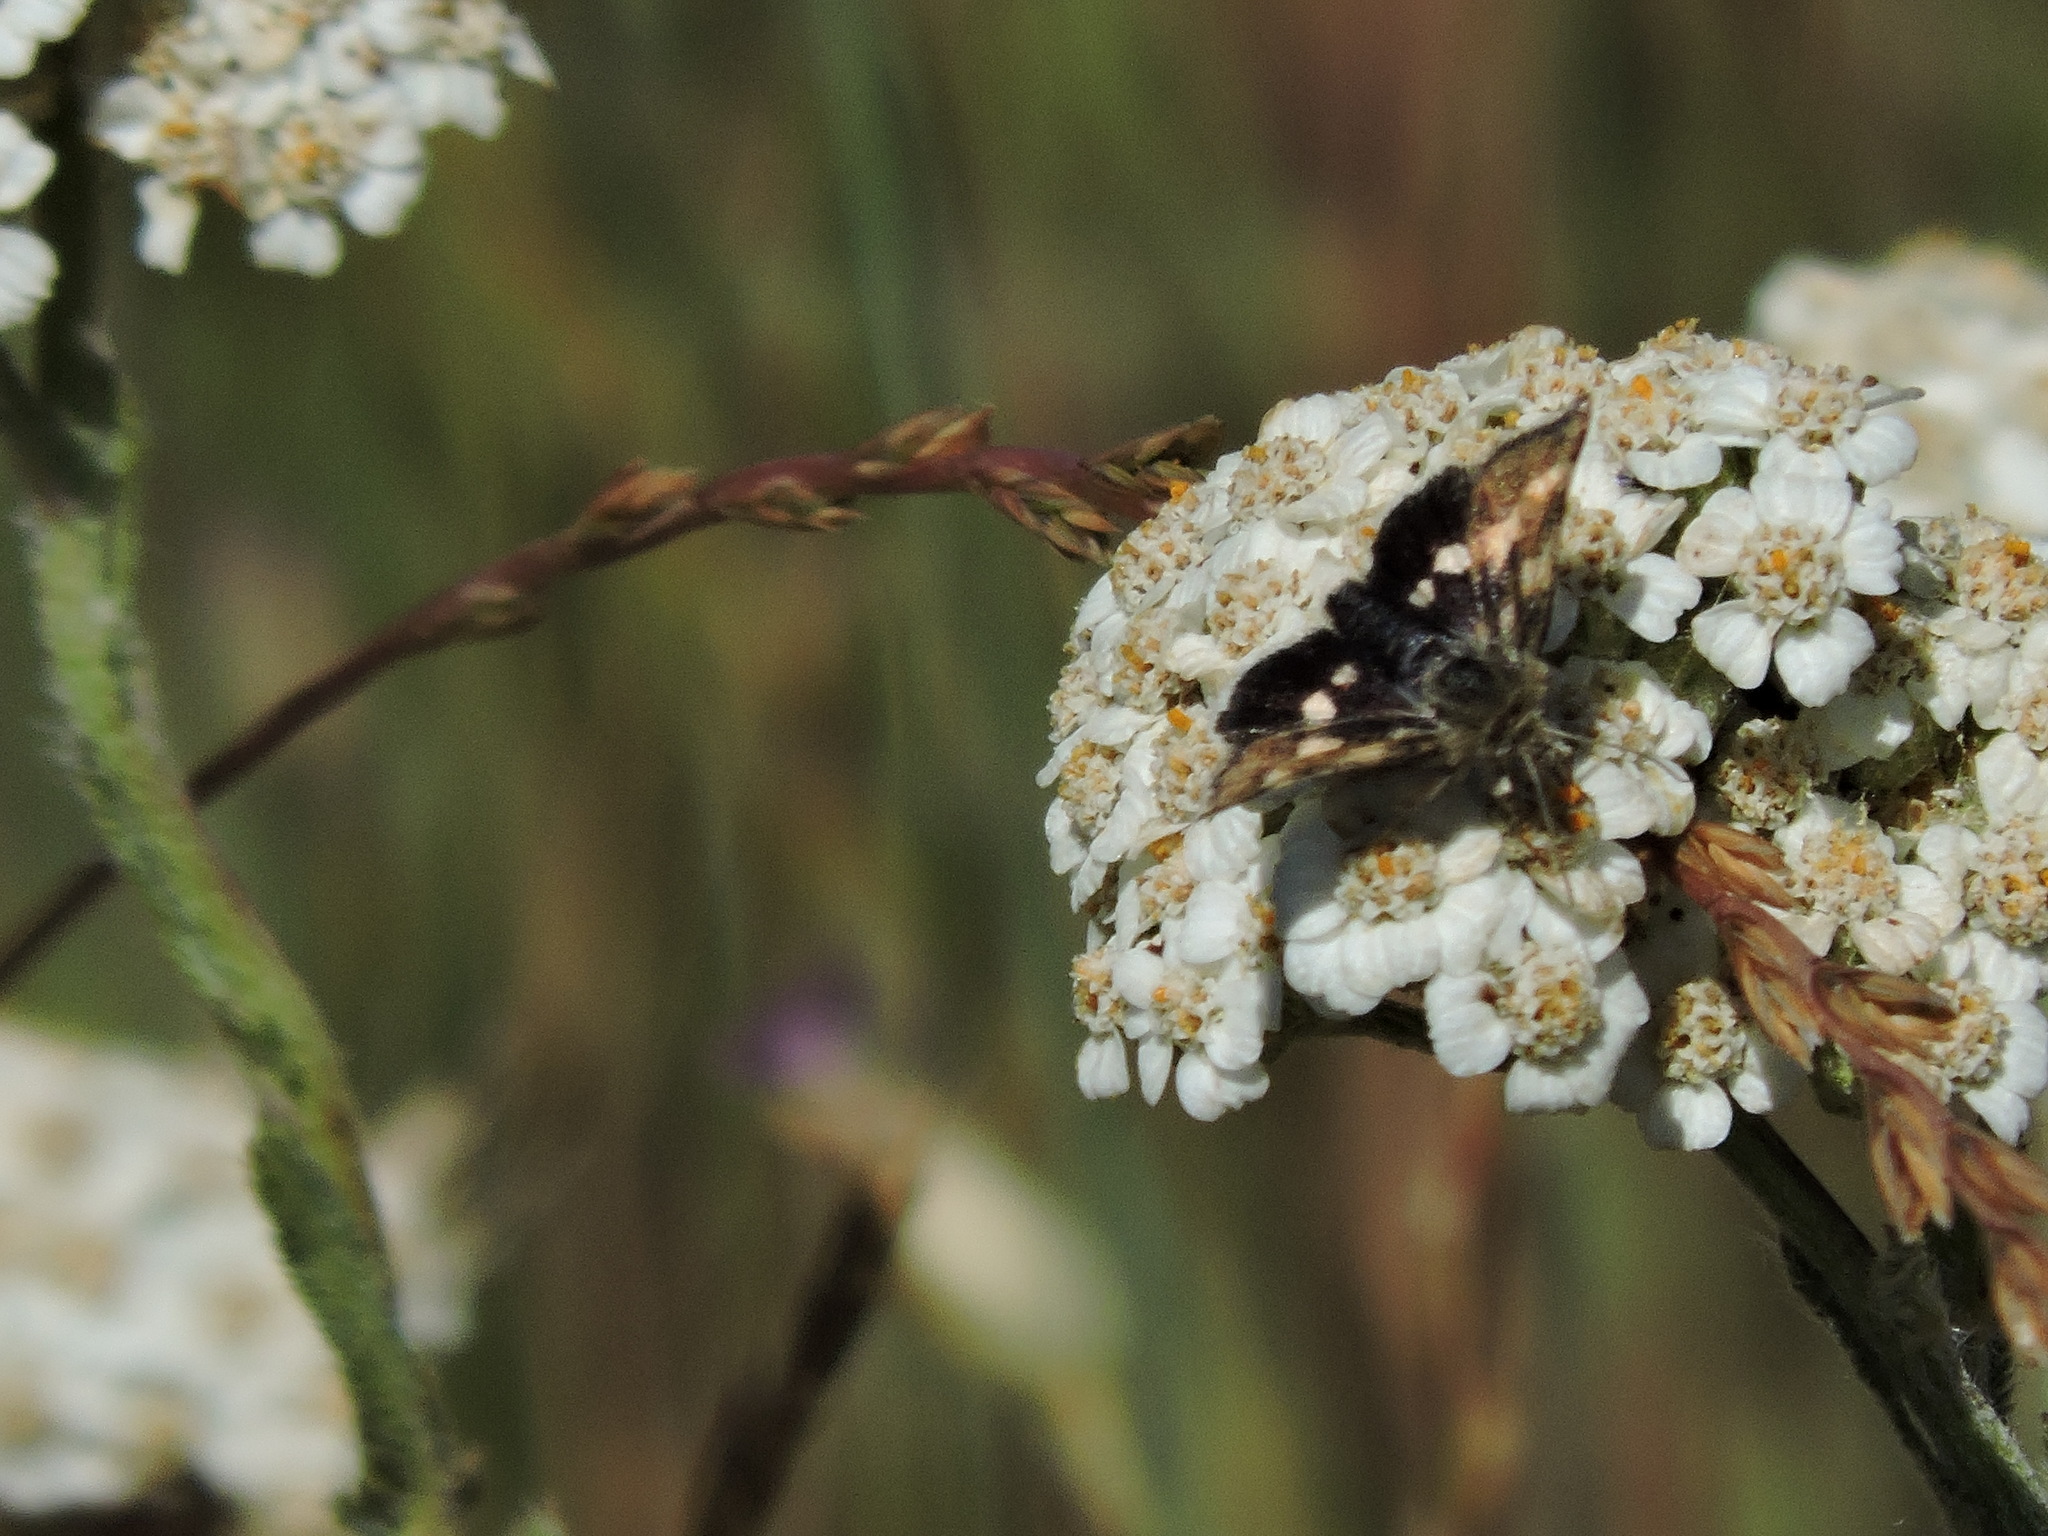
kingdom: Animalia
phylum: Arthropoda
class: Insecta
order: Lepidoptera
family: Noctuidae
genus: Heliothodes
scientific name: Heliothodes diminutiva
